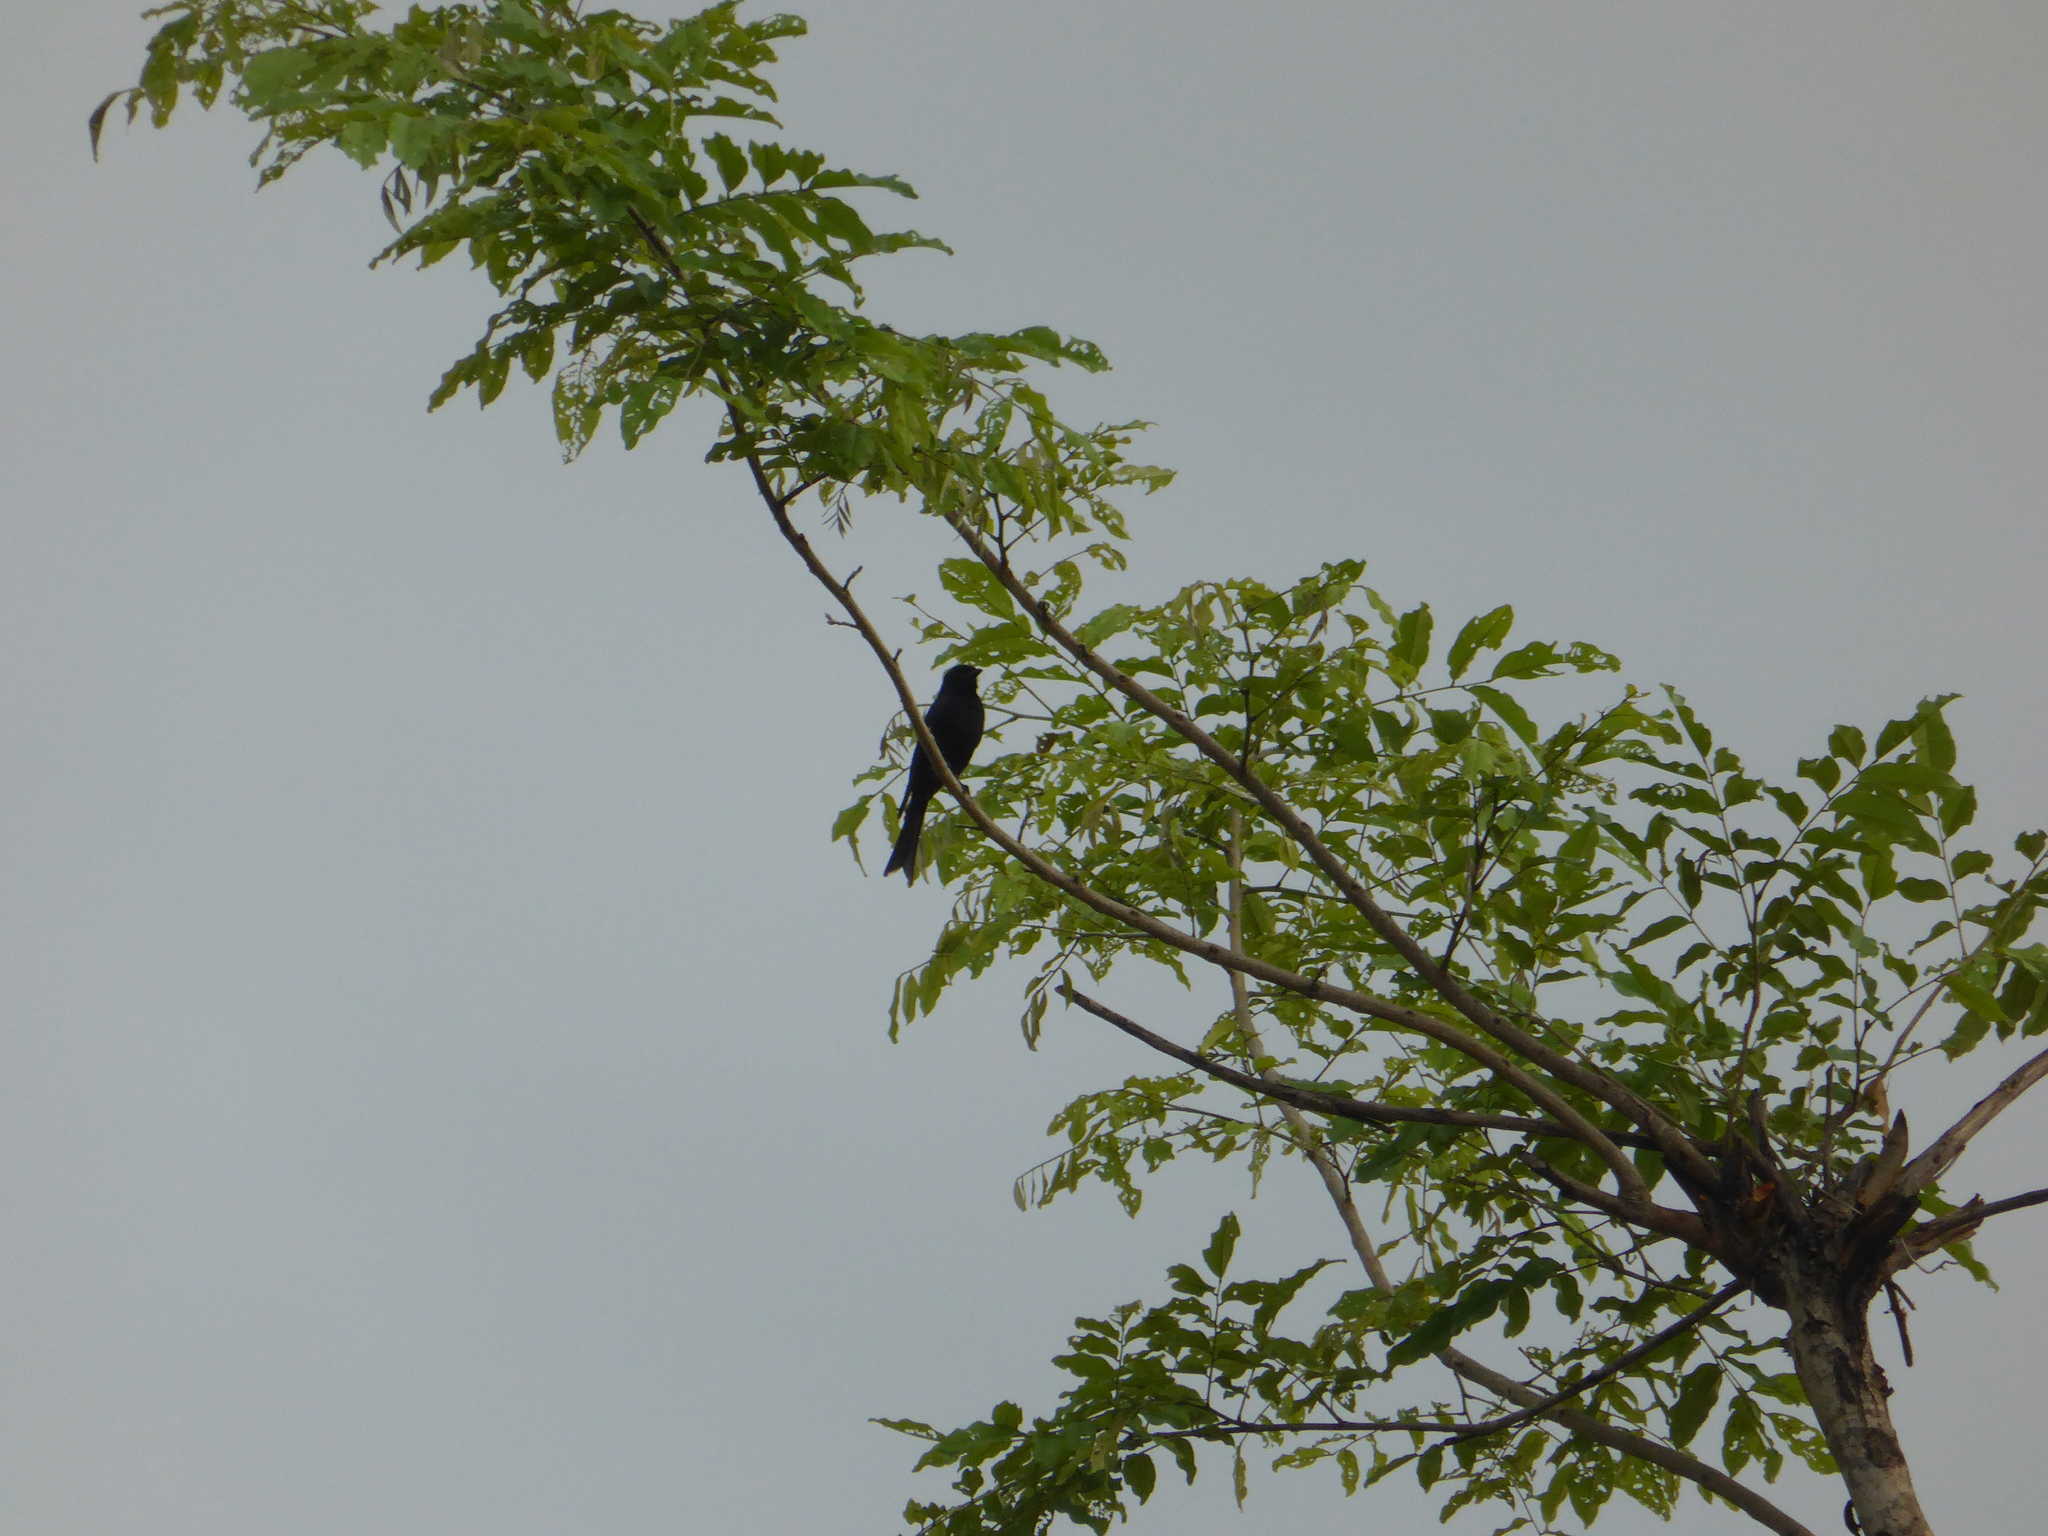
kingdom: Animalia
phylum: Chordata
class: Aves
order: Passeriformes
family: Dicruridae
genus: Dicrurus
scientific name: Dicrurus adsimilis
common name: Fork-tailed drongo
